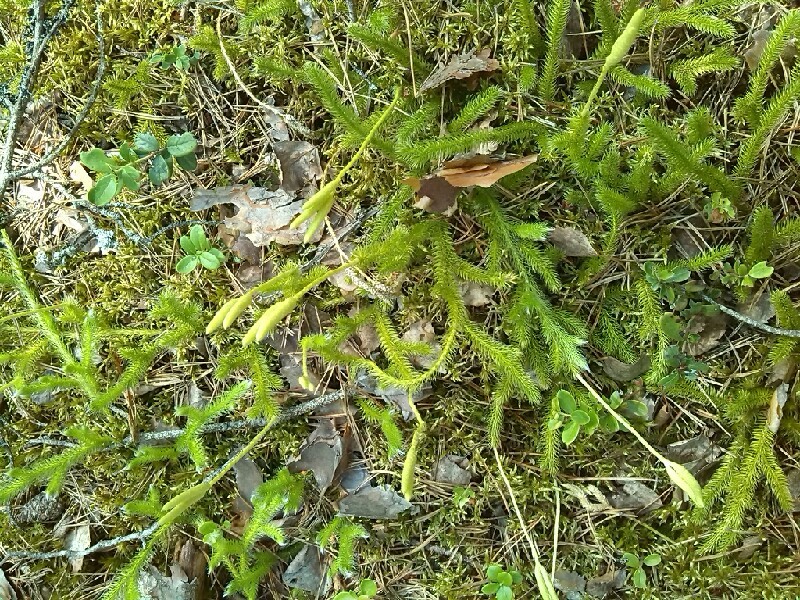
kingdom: Plantae
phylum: Tracheophyta
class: Lycopodiopsida
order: Lycopodiales
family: Lycopodiaceae
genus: Lycopodium
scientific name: Lycopodium clavatum
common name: Stag's-horn clubmoss
